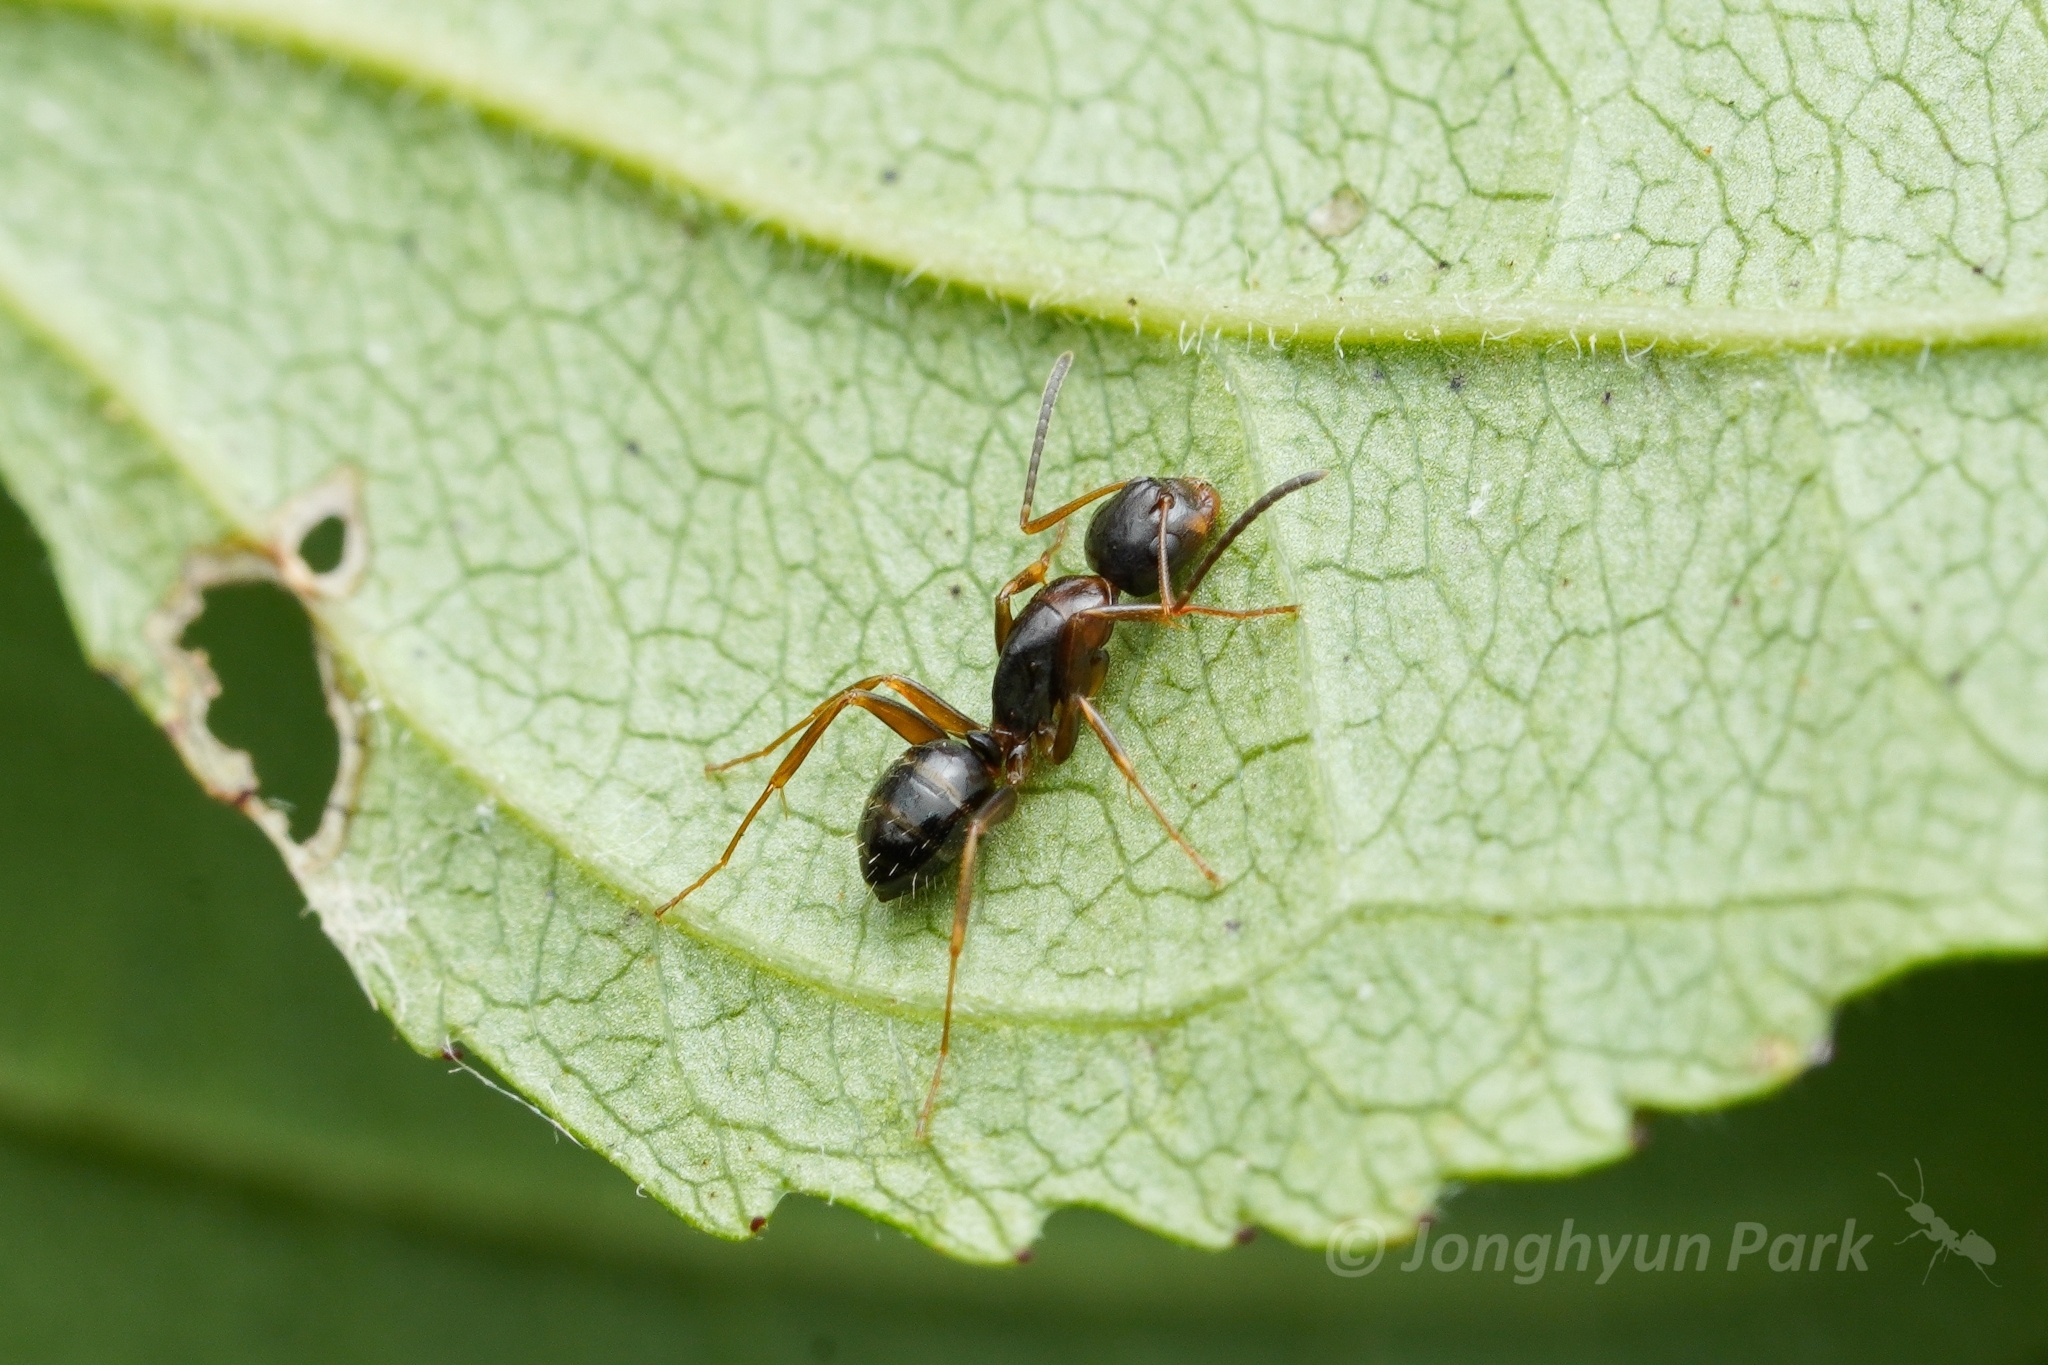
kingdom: Animalia
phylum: Arthropoda
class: Insecta
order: Hymenoptera
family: Formicidae
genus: Camponotus
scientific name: Camponotus nearcticus
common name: Smaller carpenter ant
